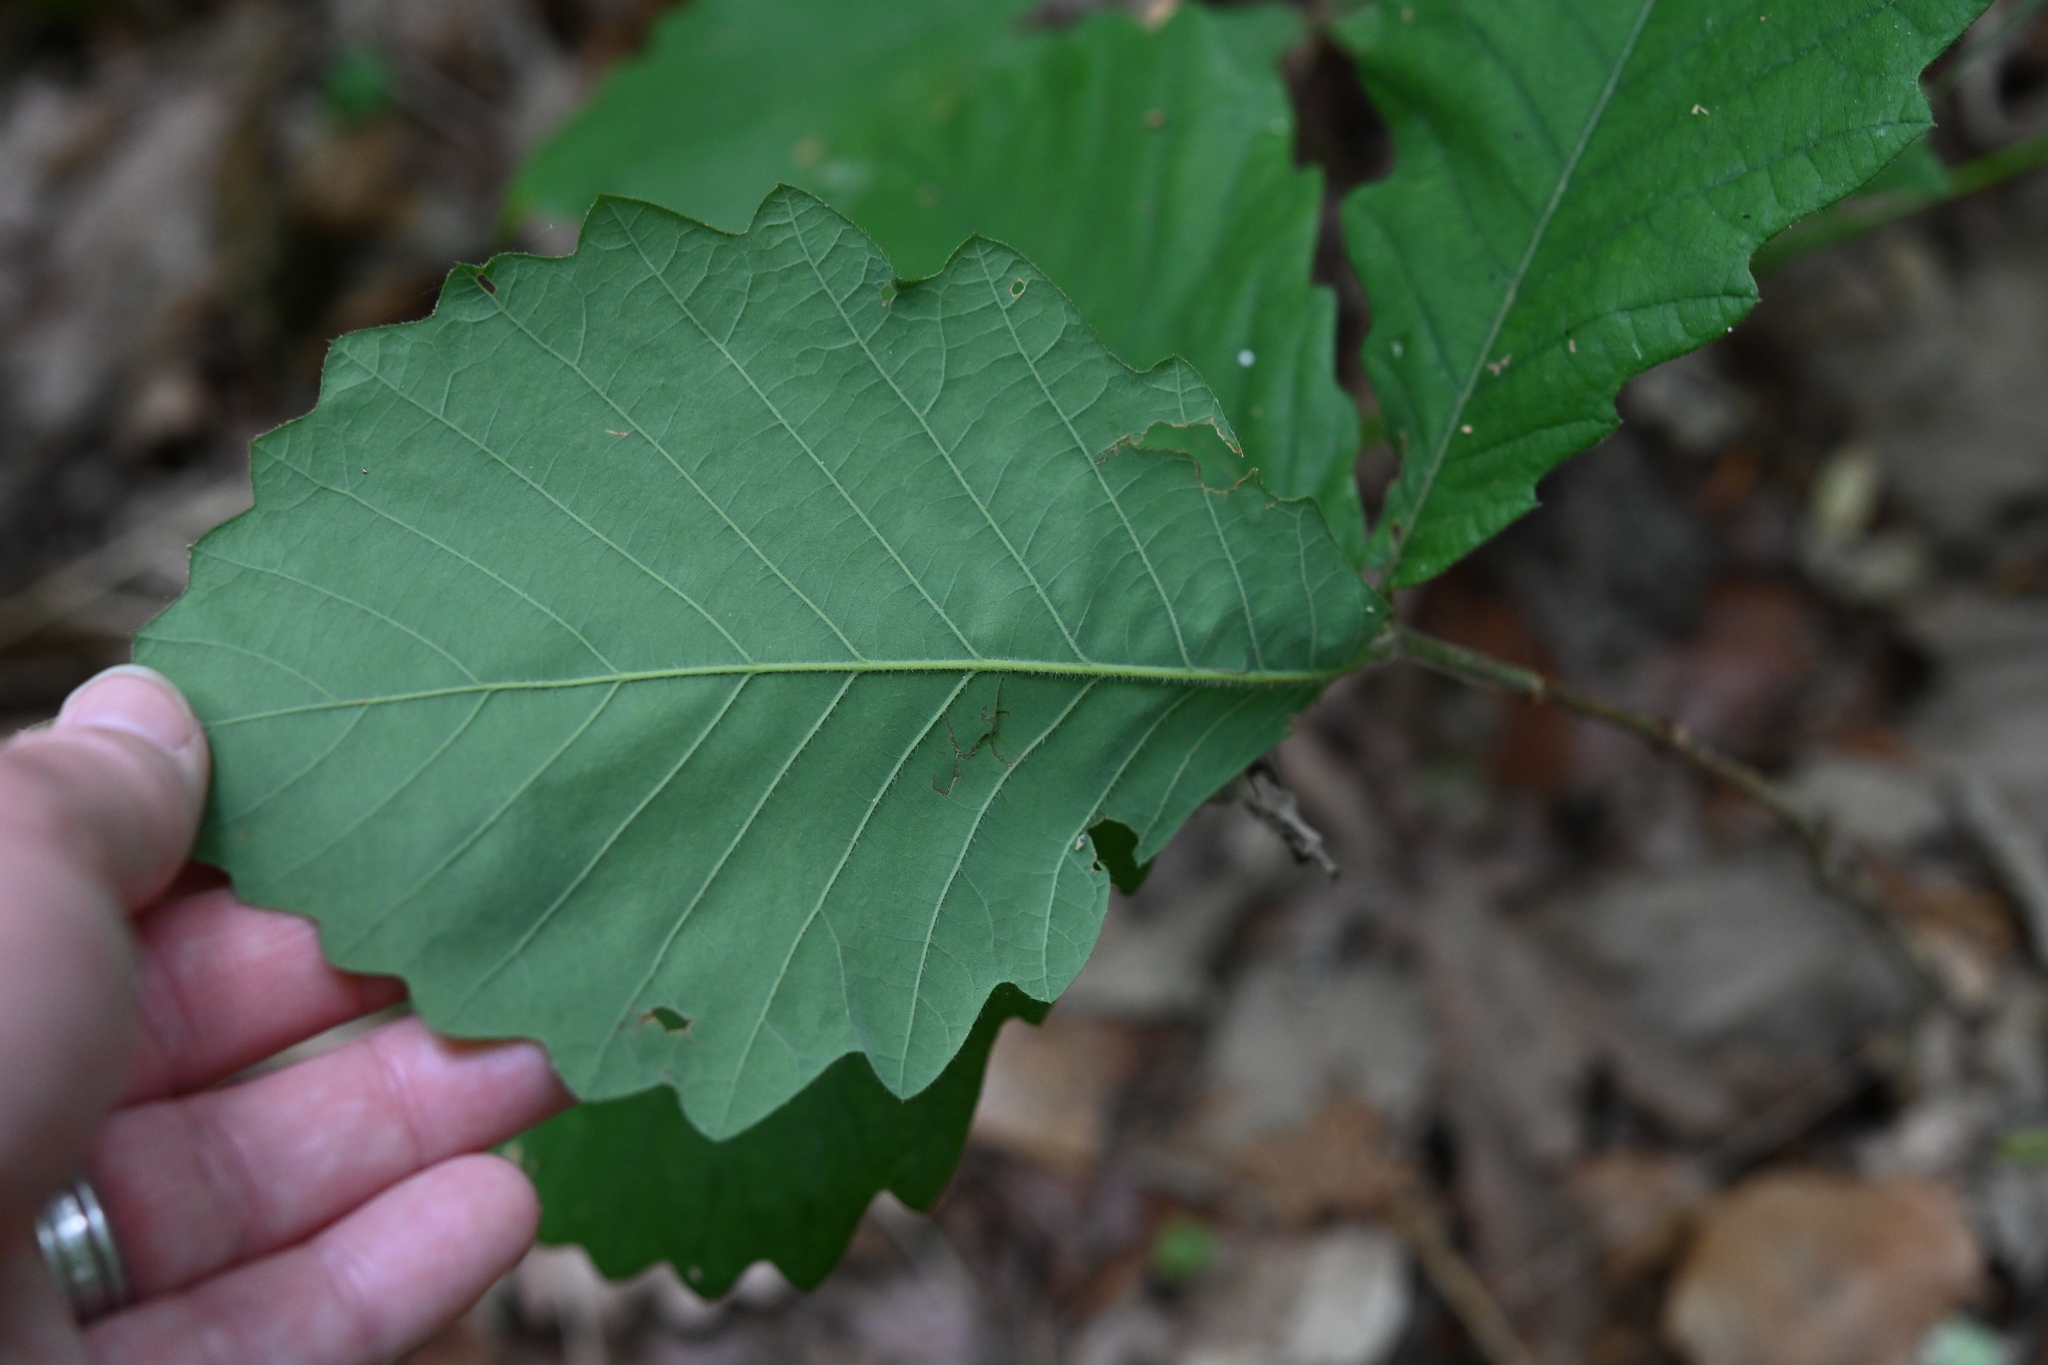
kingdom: Plantae
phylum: Tracheophyta
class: Magnoliopsida
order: Fagales
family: Fagaceae
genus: Quercus
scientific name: Quercus michauxii
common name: Swamp chestnut oak
